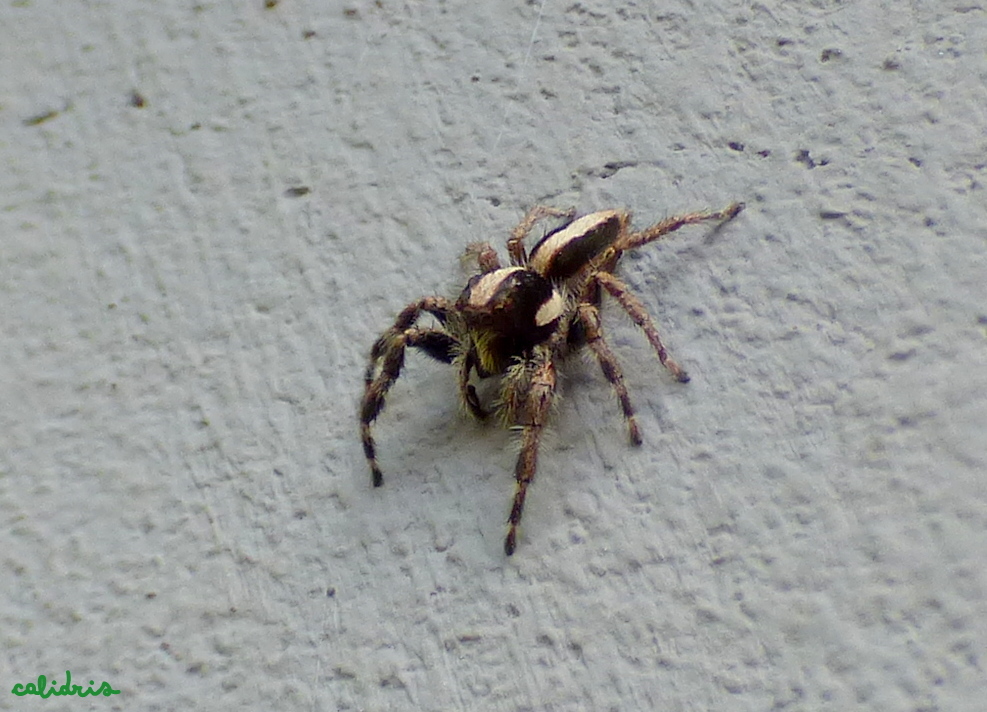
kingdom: Animalia
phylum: Arthropoda
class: Arachnida
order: Araneae
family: Salticidae
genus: Megafreya
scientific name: Megafreya sutrix
